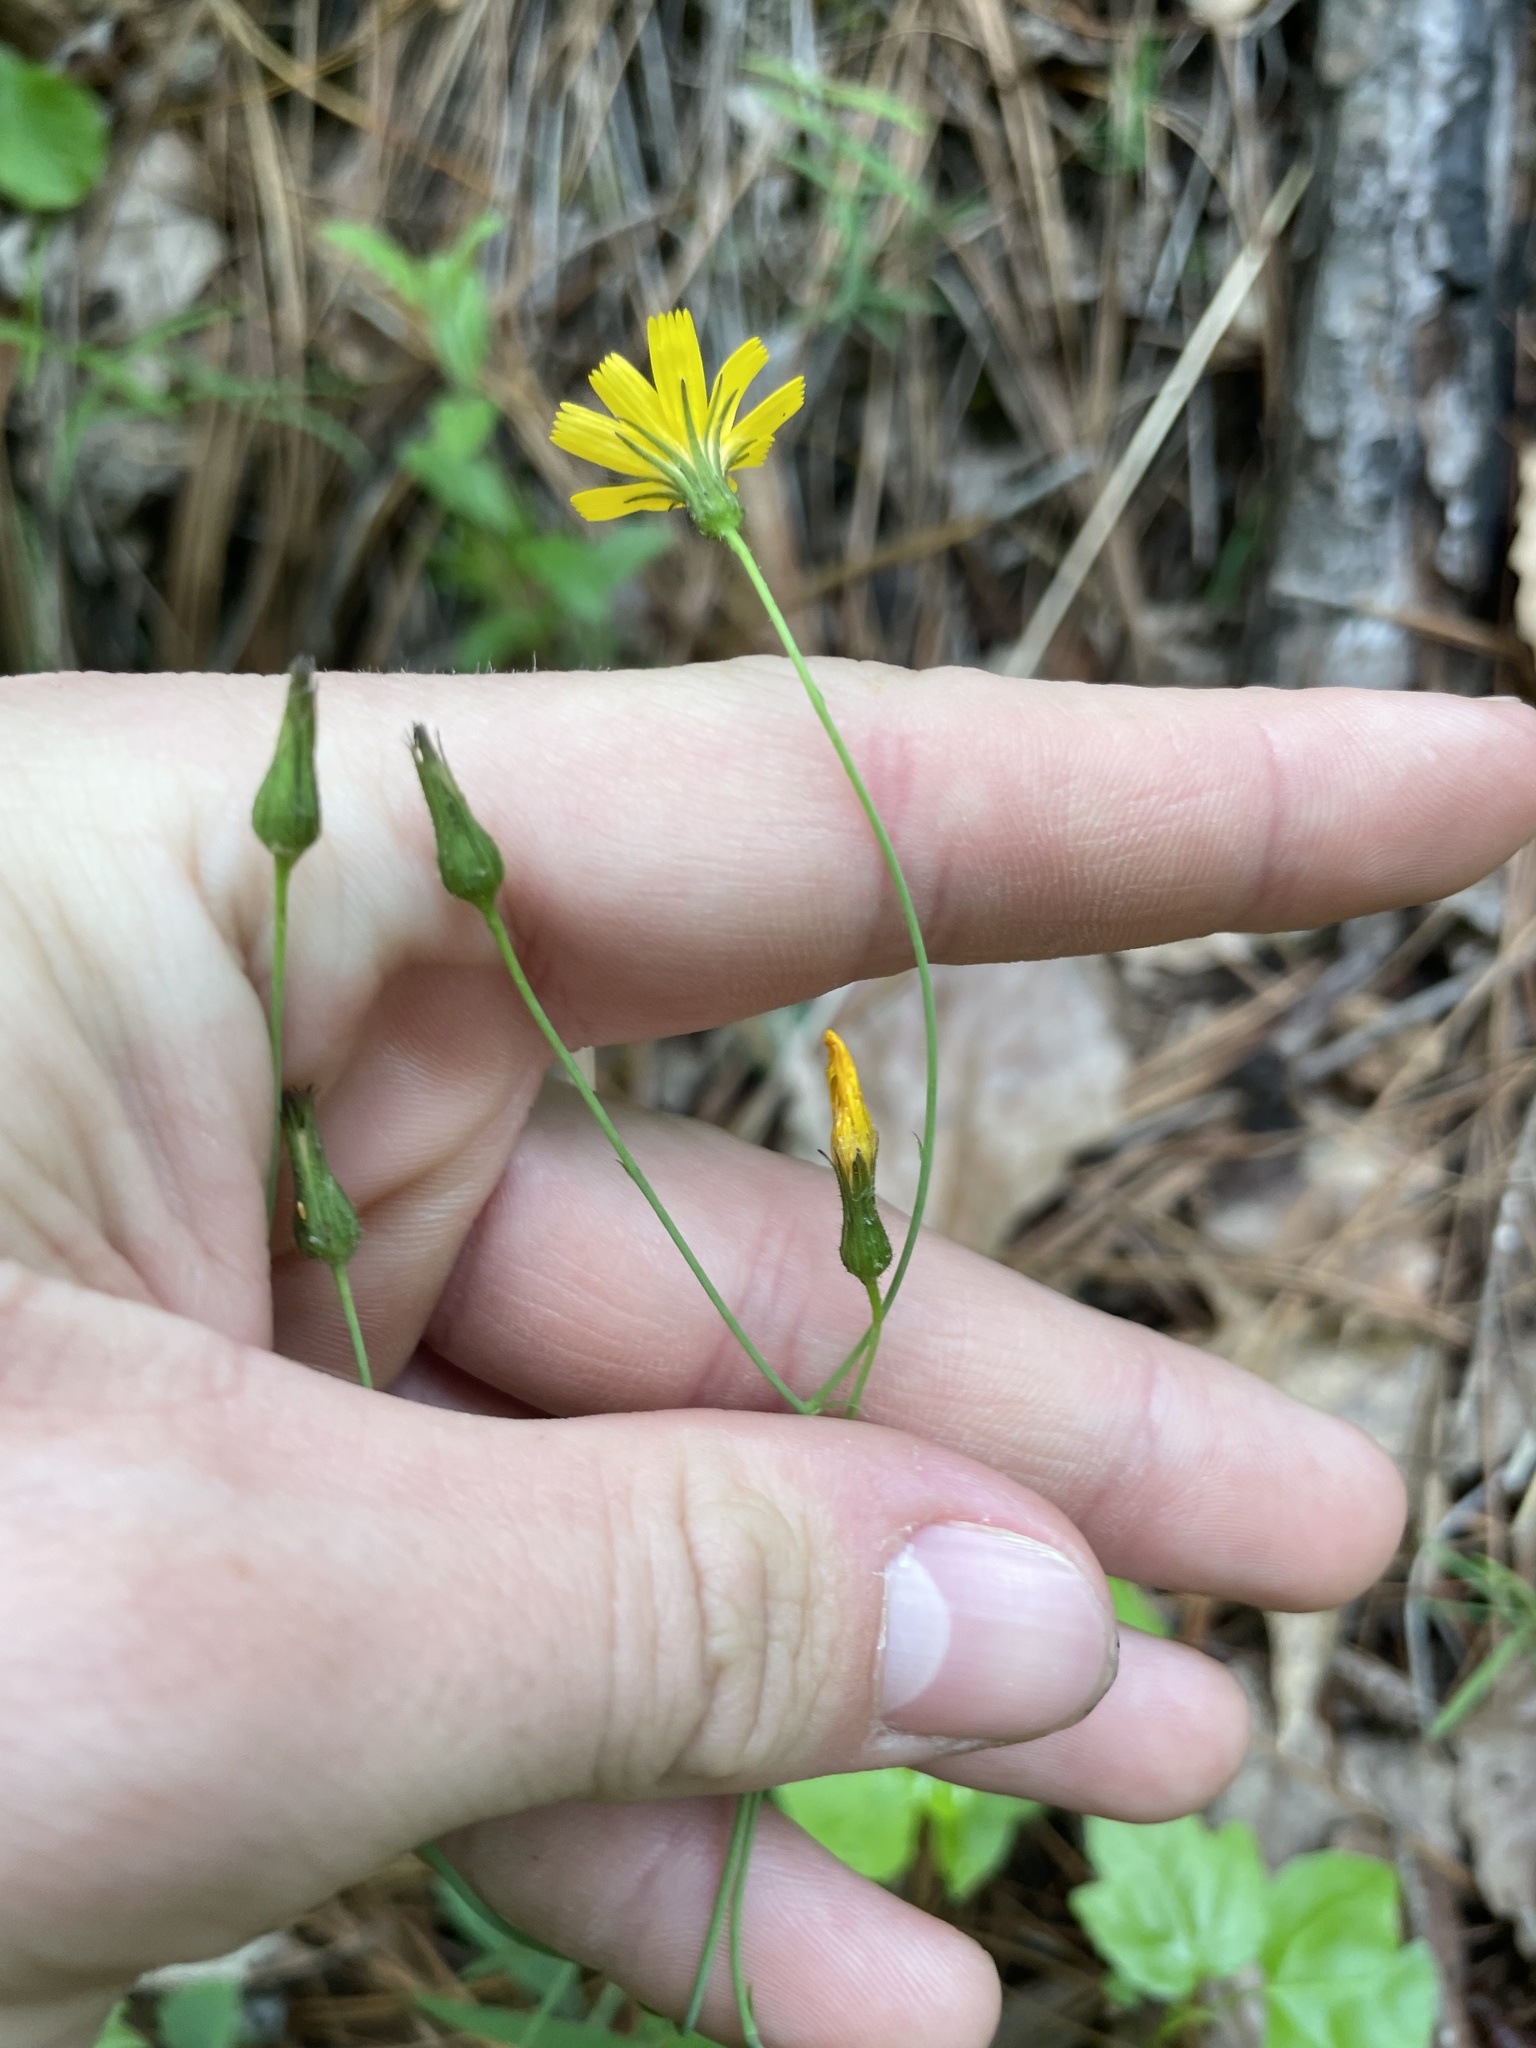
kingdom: Plantae
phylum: Tracheophyta
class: Magnoliopsida
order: Asterales
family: Asteraceae
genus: Hieracium
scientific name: Hieracium marianum
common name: Maryland hawkweed
